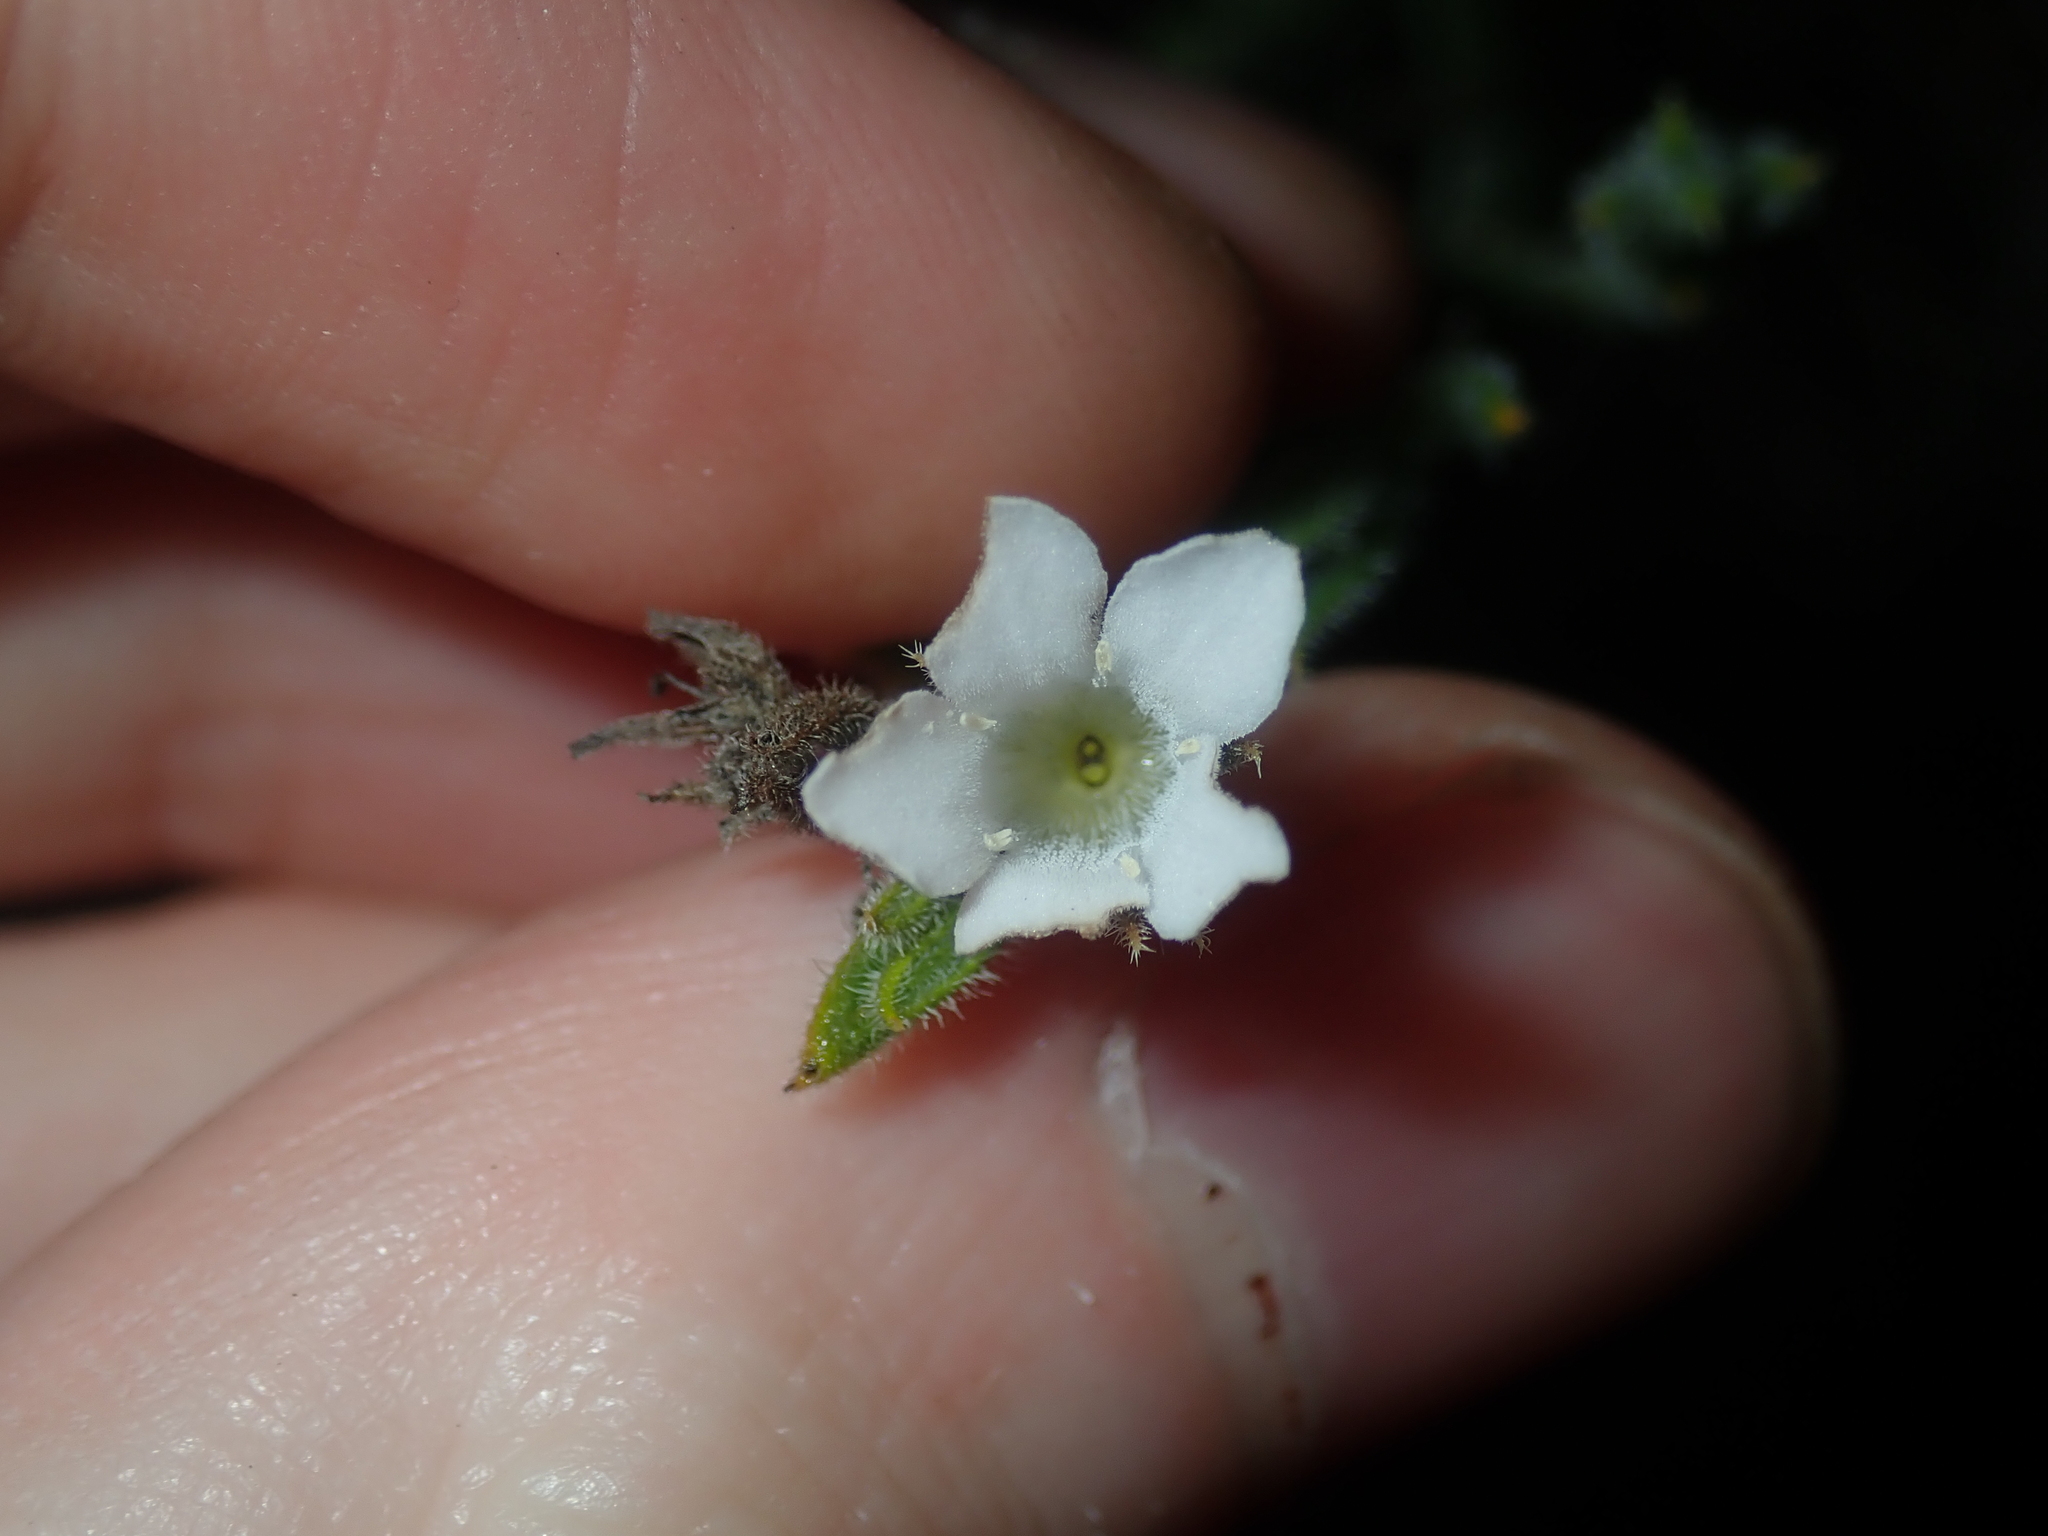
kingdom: Plantae
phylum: Tracheophyta
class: Magnoliopsida
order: Gentianales
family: Loganiaceae
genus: Orianthera
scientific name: Orianthera spermacocea
